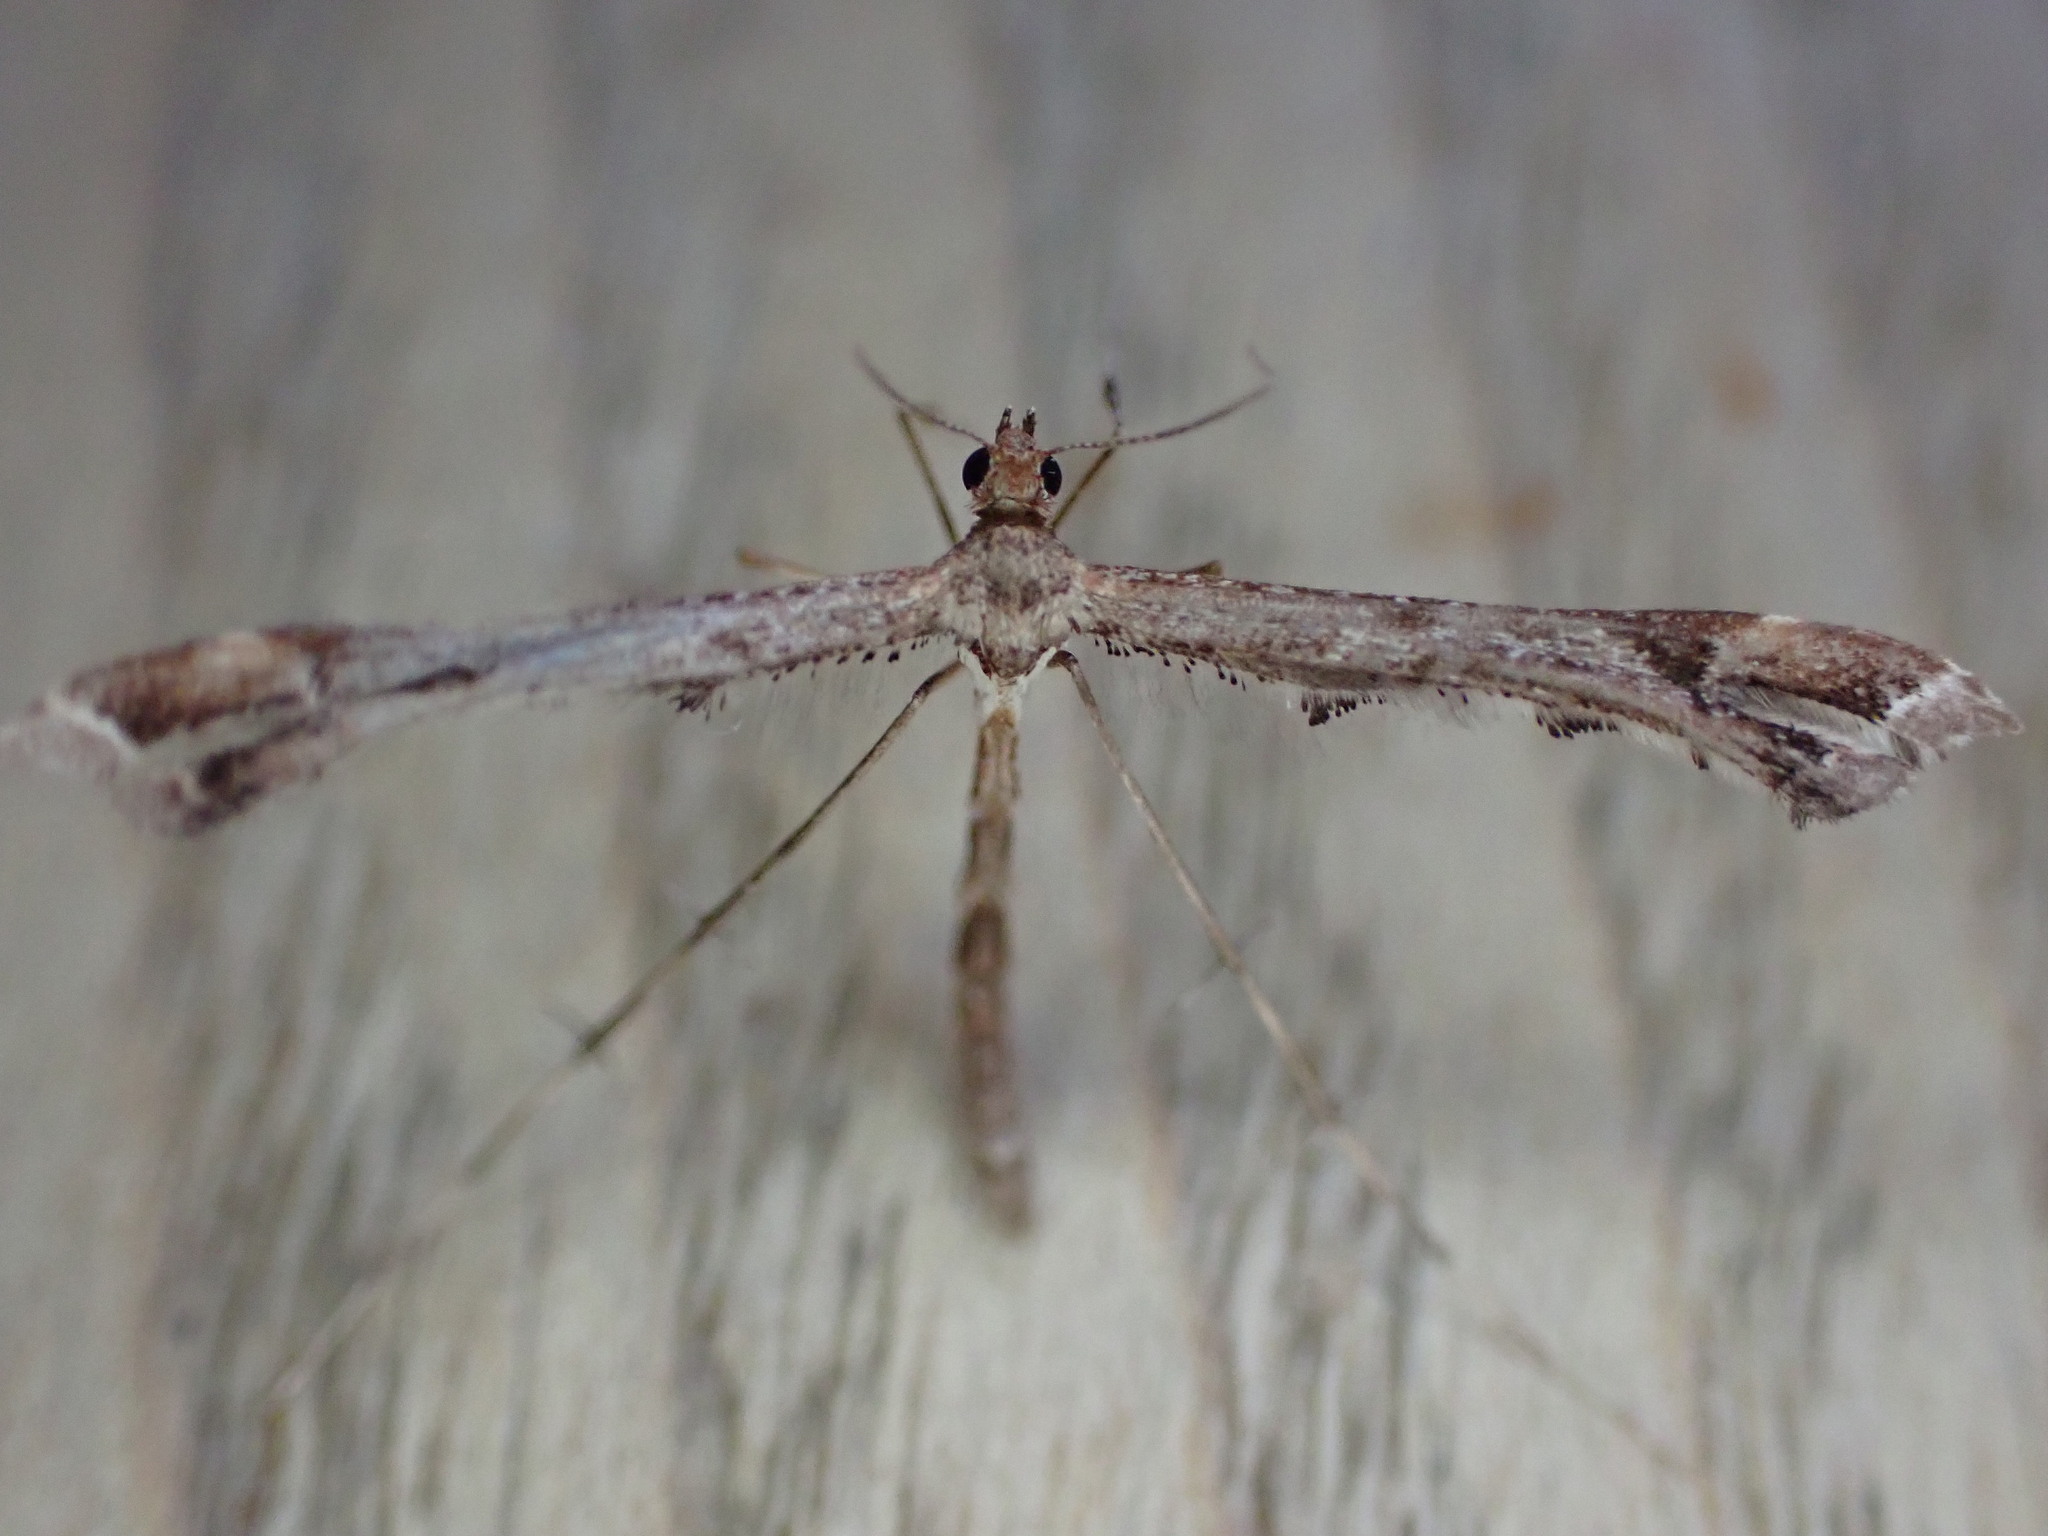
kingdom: Animalia
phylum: Arthropoda
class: Insecta
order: Lepidoptera
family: Pterophoridae
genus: Amblyptilia
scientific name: Amblyptilia acanthadactyla
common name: Beautiful plume
